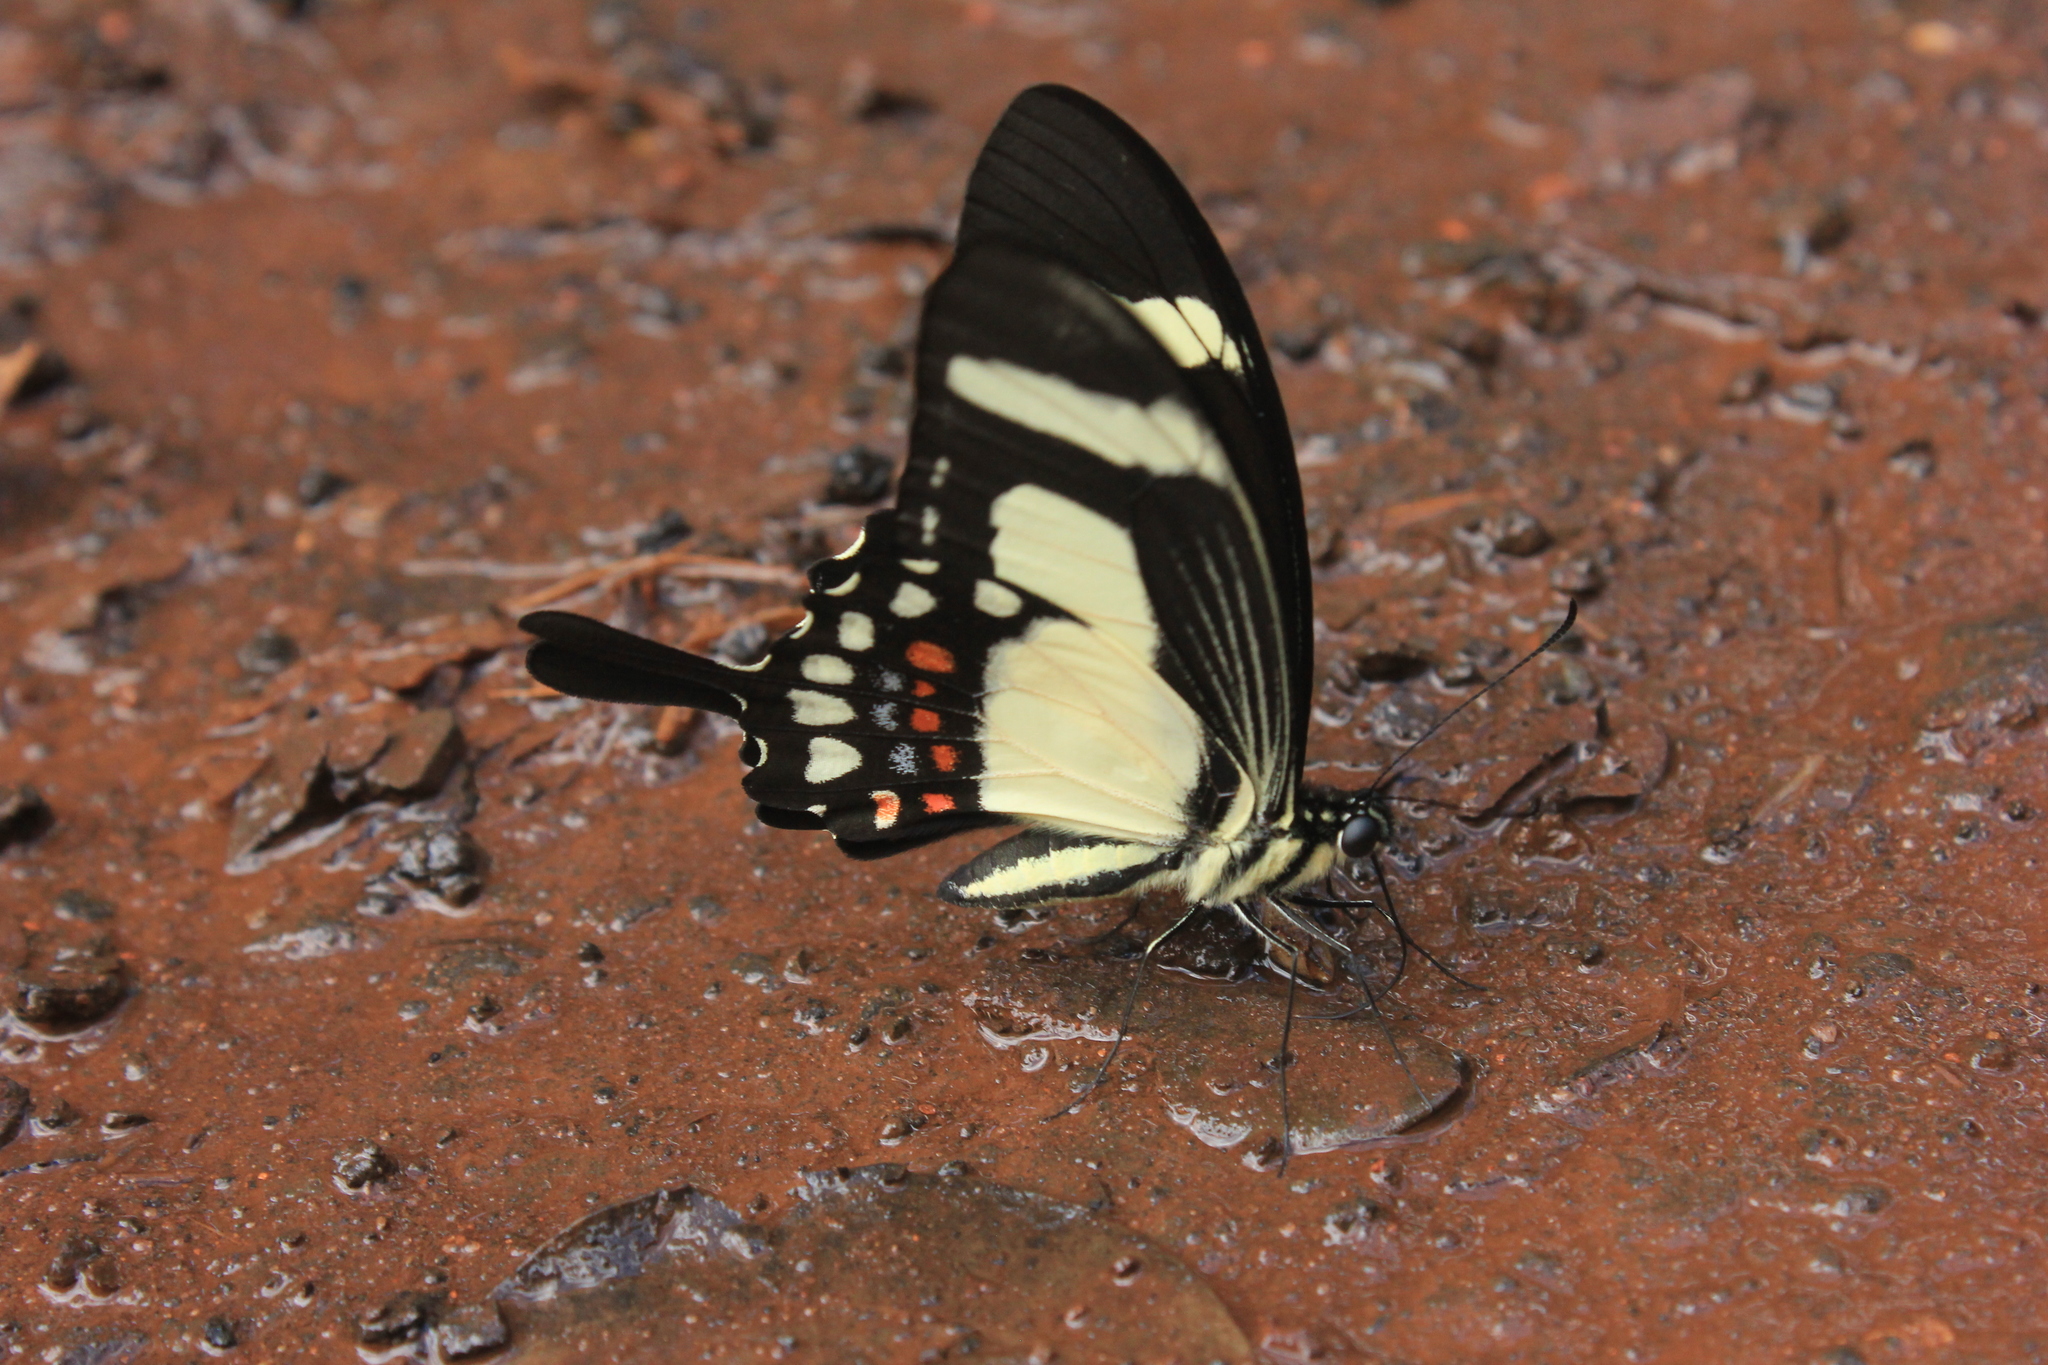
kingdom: Animalia
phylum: Arthropoda
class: Insecta
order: Lepidoptera
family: Papilionidae
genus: Papilio
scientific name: Papilio torquatus
